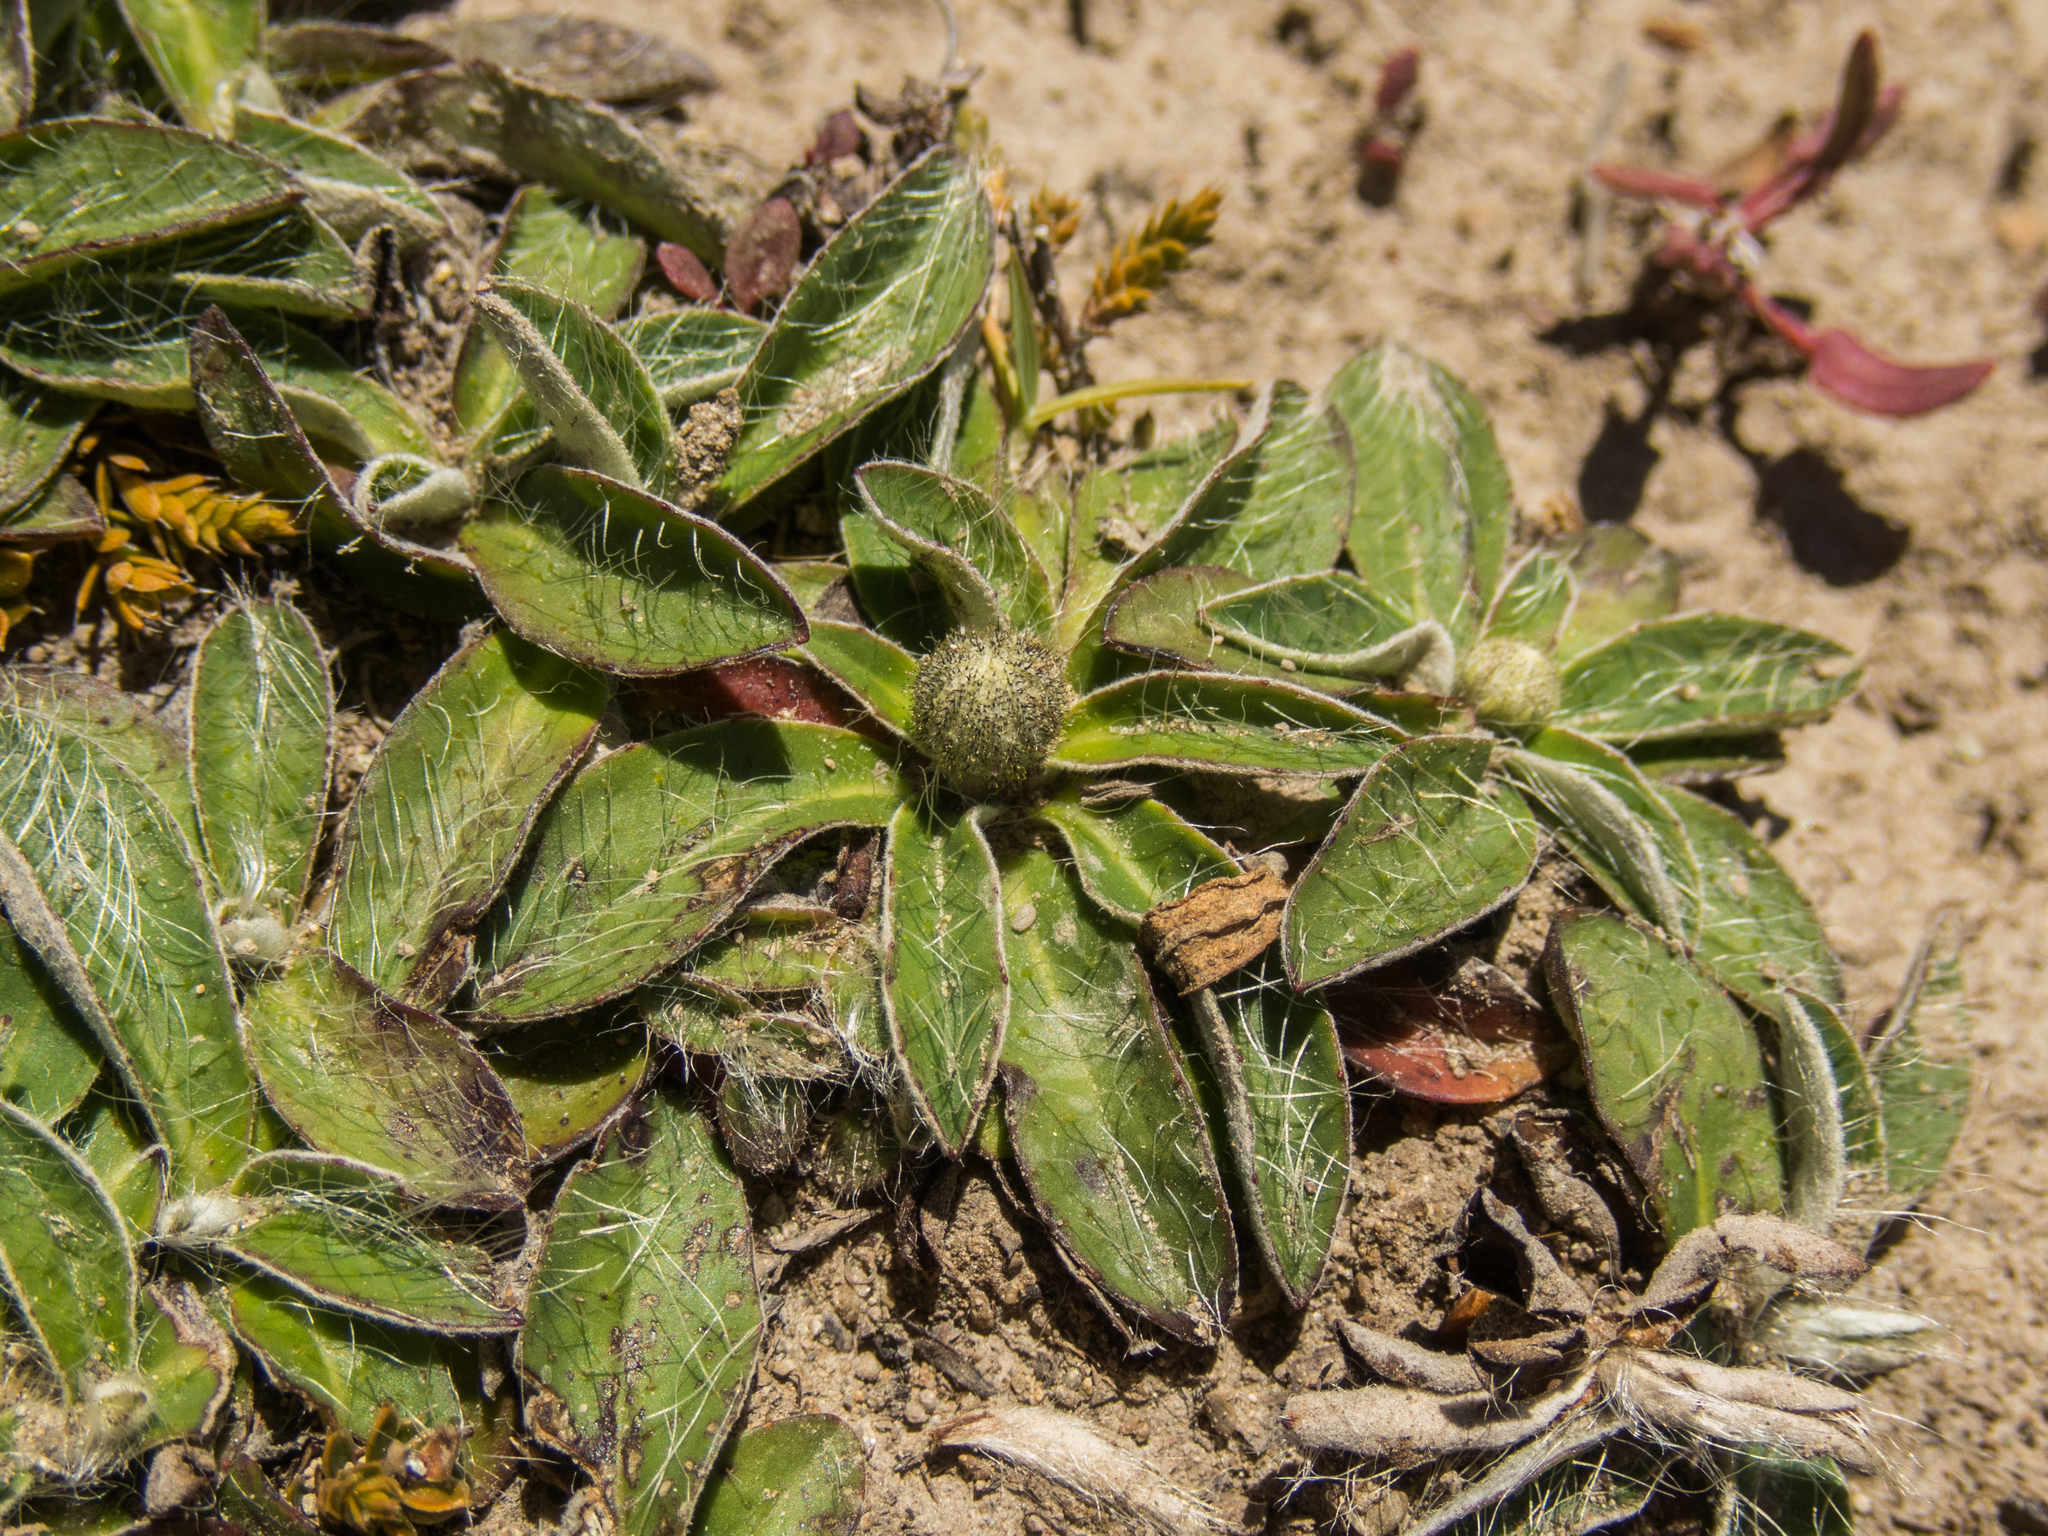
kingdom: Plantae
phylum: Tracheophyta
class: Magnoliopsida
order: Asterales
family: Asteraceae
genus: Pilosella
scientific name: Pilosella officinarum
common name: Mouse-ear hawkweed
